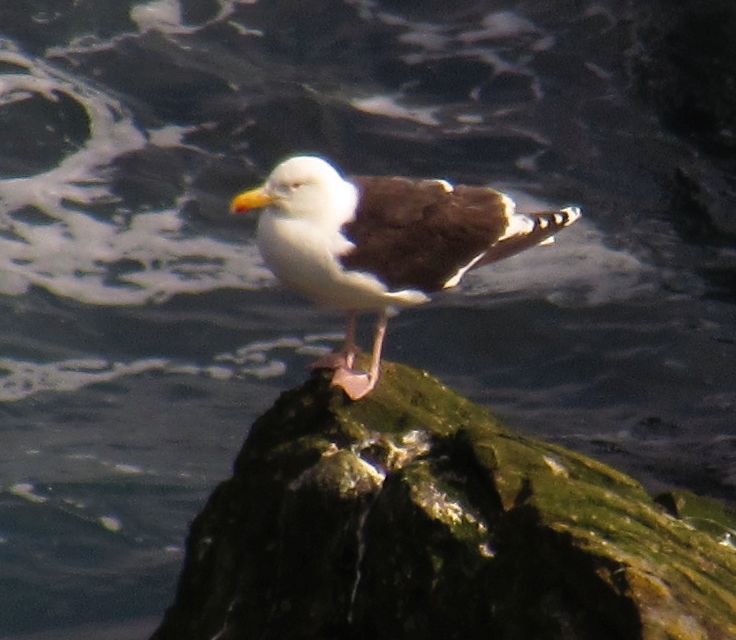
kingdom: Animalia
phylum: Chordata
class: Aves
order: Charadriiformes
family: Laridae
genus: Larus
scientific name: Larus marinus
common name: Great black-backed gull
